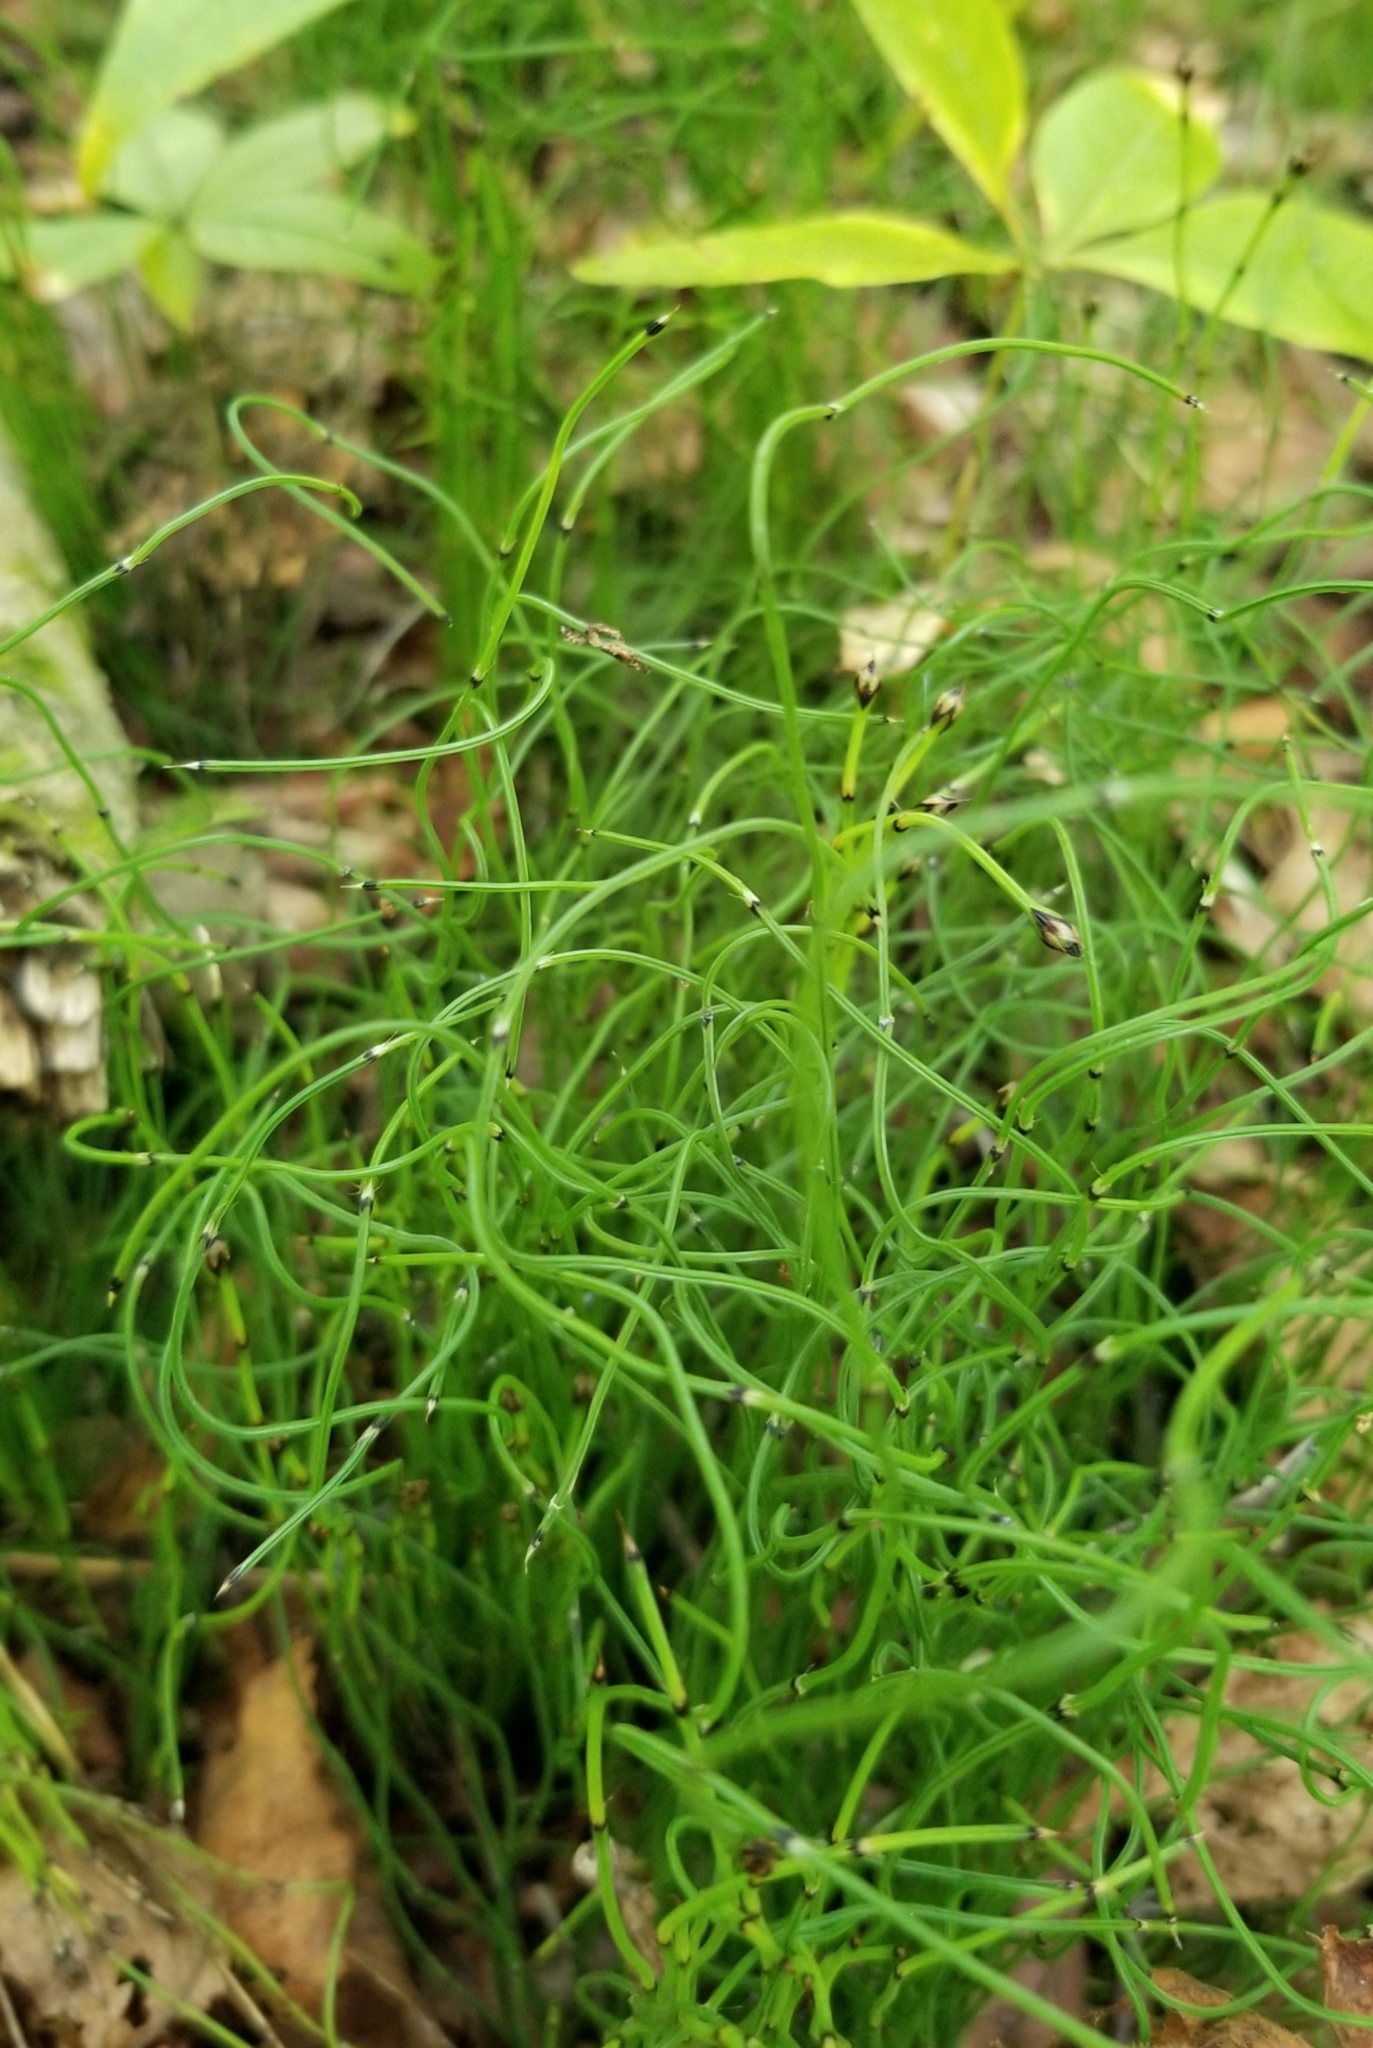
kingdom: Plantae
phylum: Tracheophyta
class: Polypodiopsida
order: Equisetales
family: Equisetaceae
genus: Equisetum
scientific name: Equisetum scirpoides
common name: Delicate horsetail
